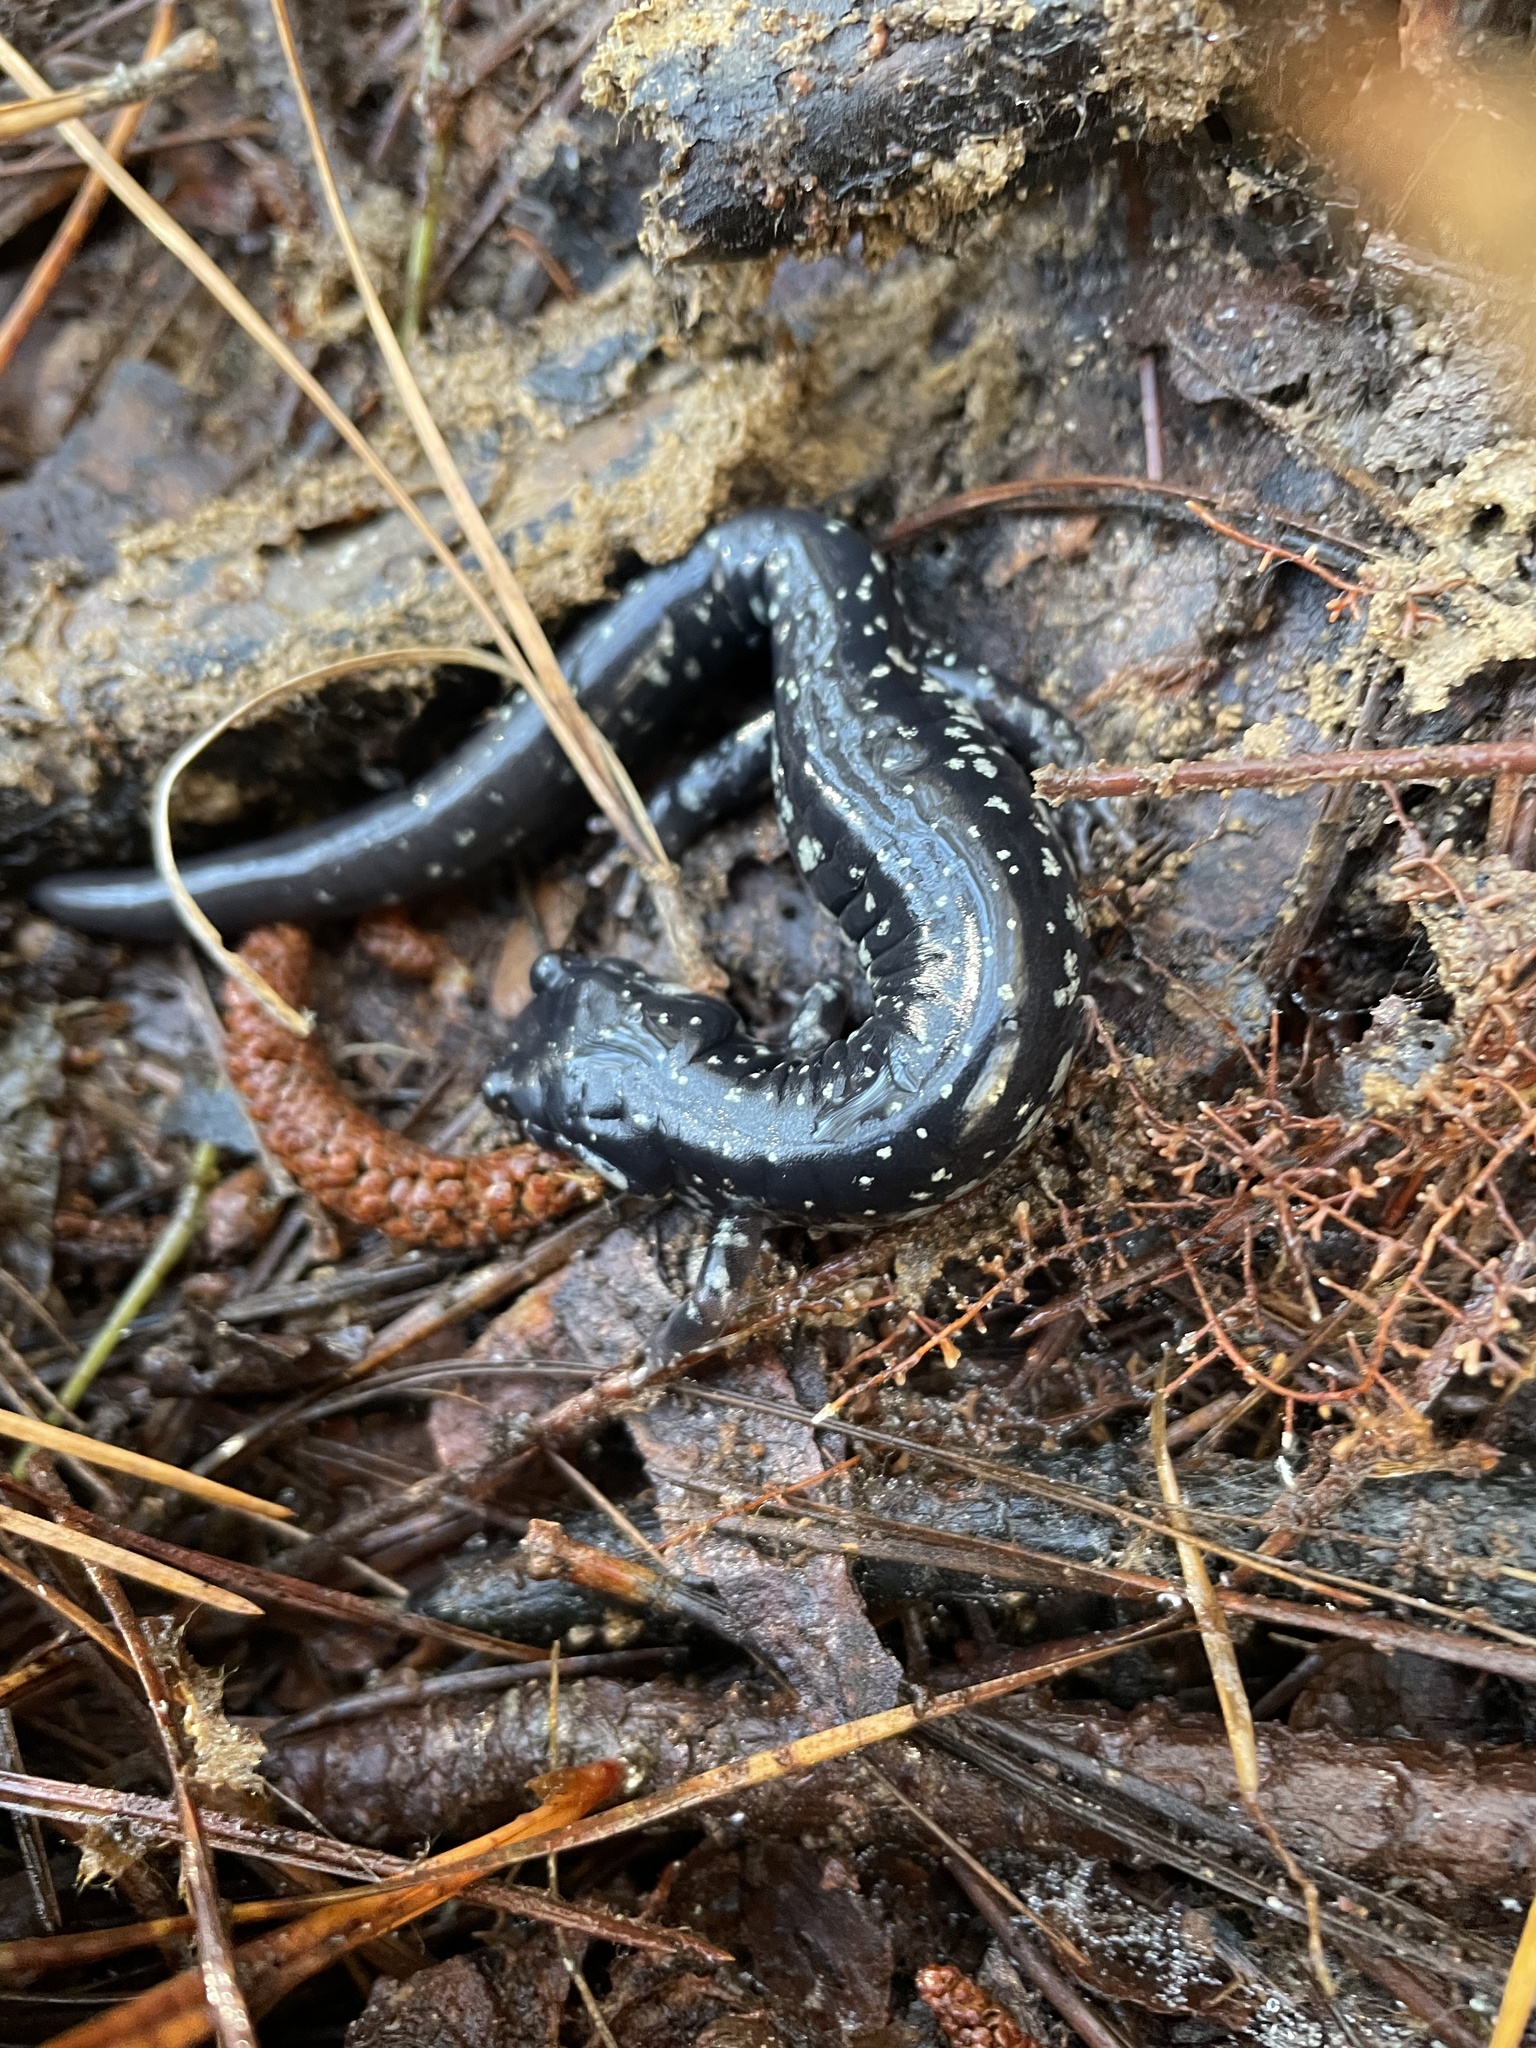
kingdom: Animalia
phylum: Chordata
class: Amphibia
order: Caudata
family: Plethodontidae
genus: Plethodon
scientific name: Plethodon glutinosus
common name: Northern slimy salamander
